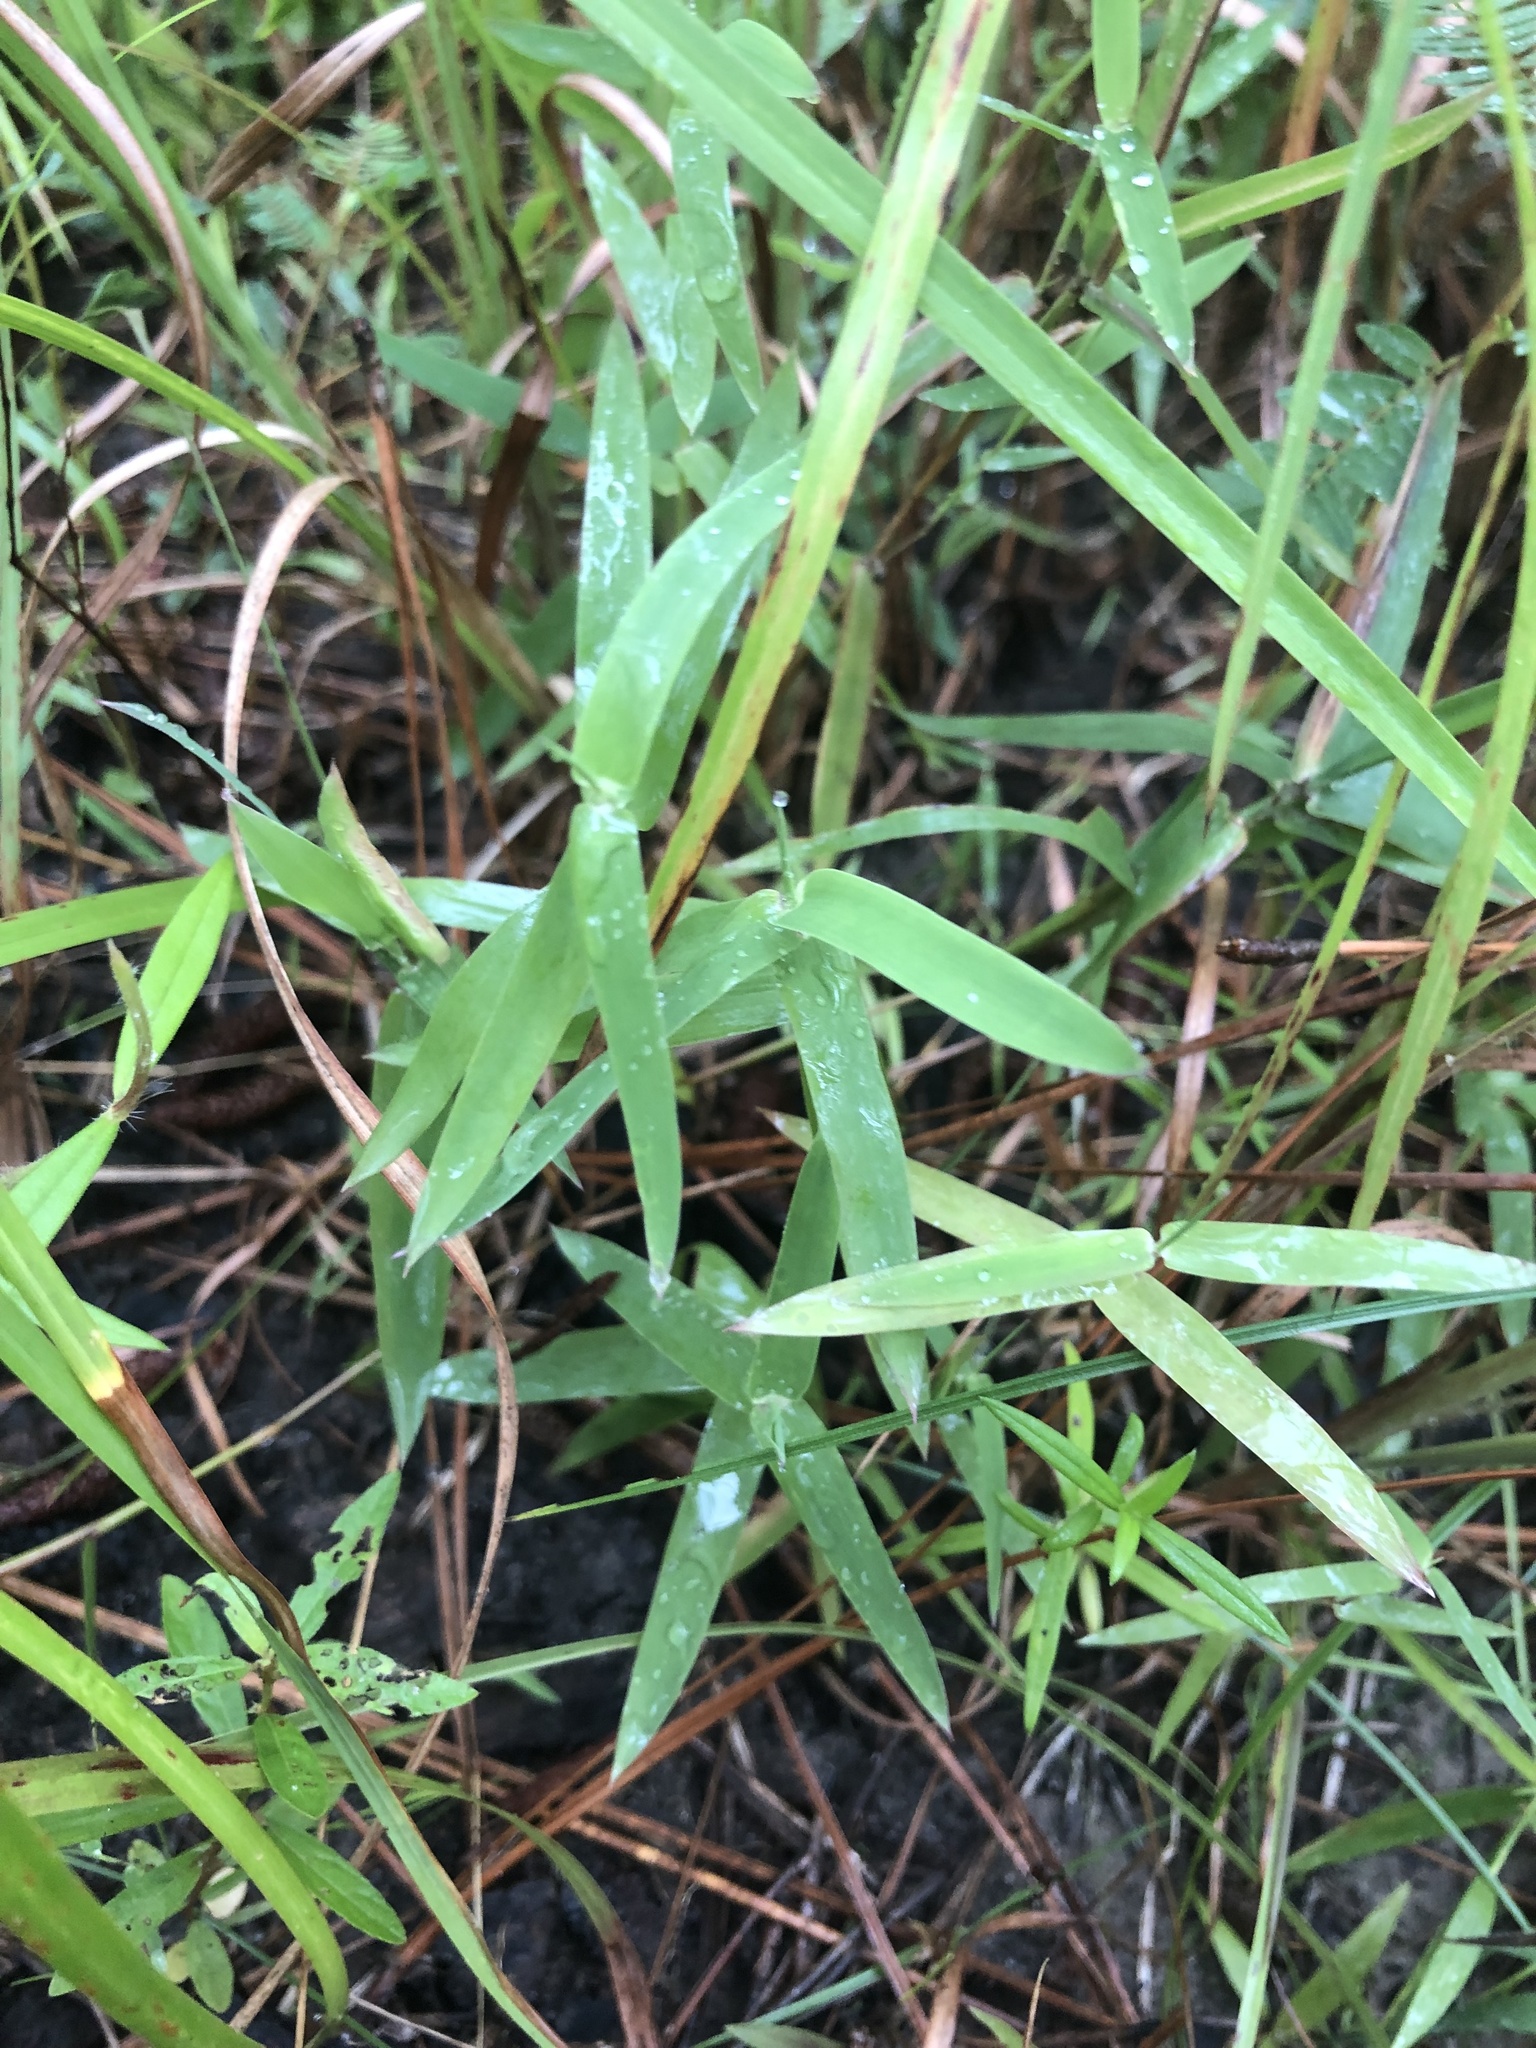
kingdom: Plantae
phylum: Tracheophyta
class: Liliopsida
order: Poales
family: Poaceae
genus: Gymnopogon
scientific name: Gymnopogon brevifolius
